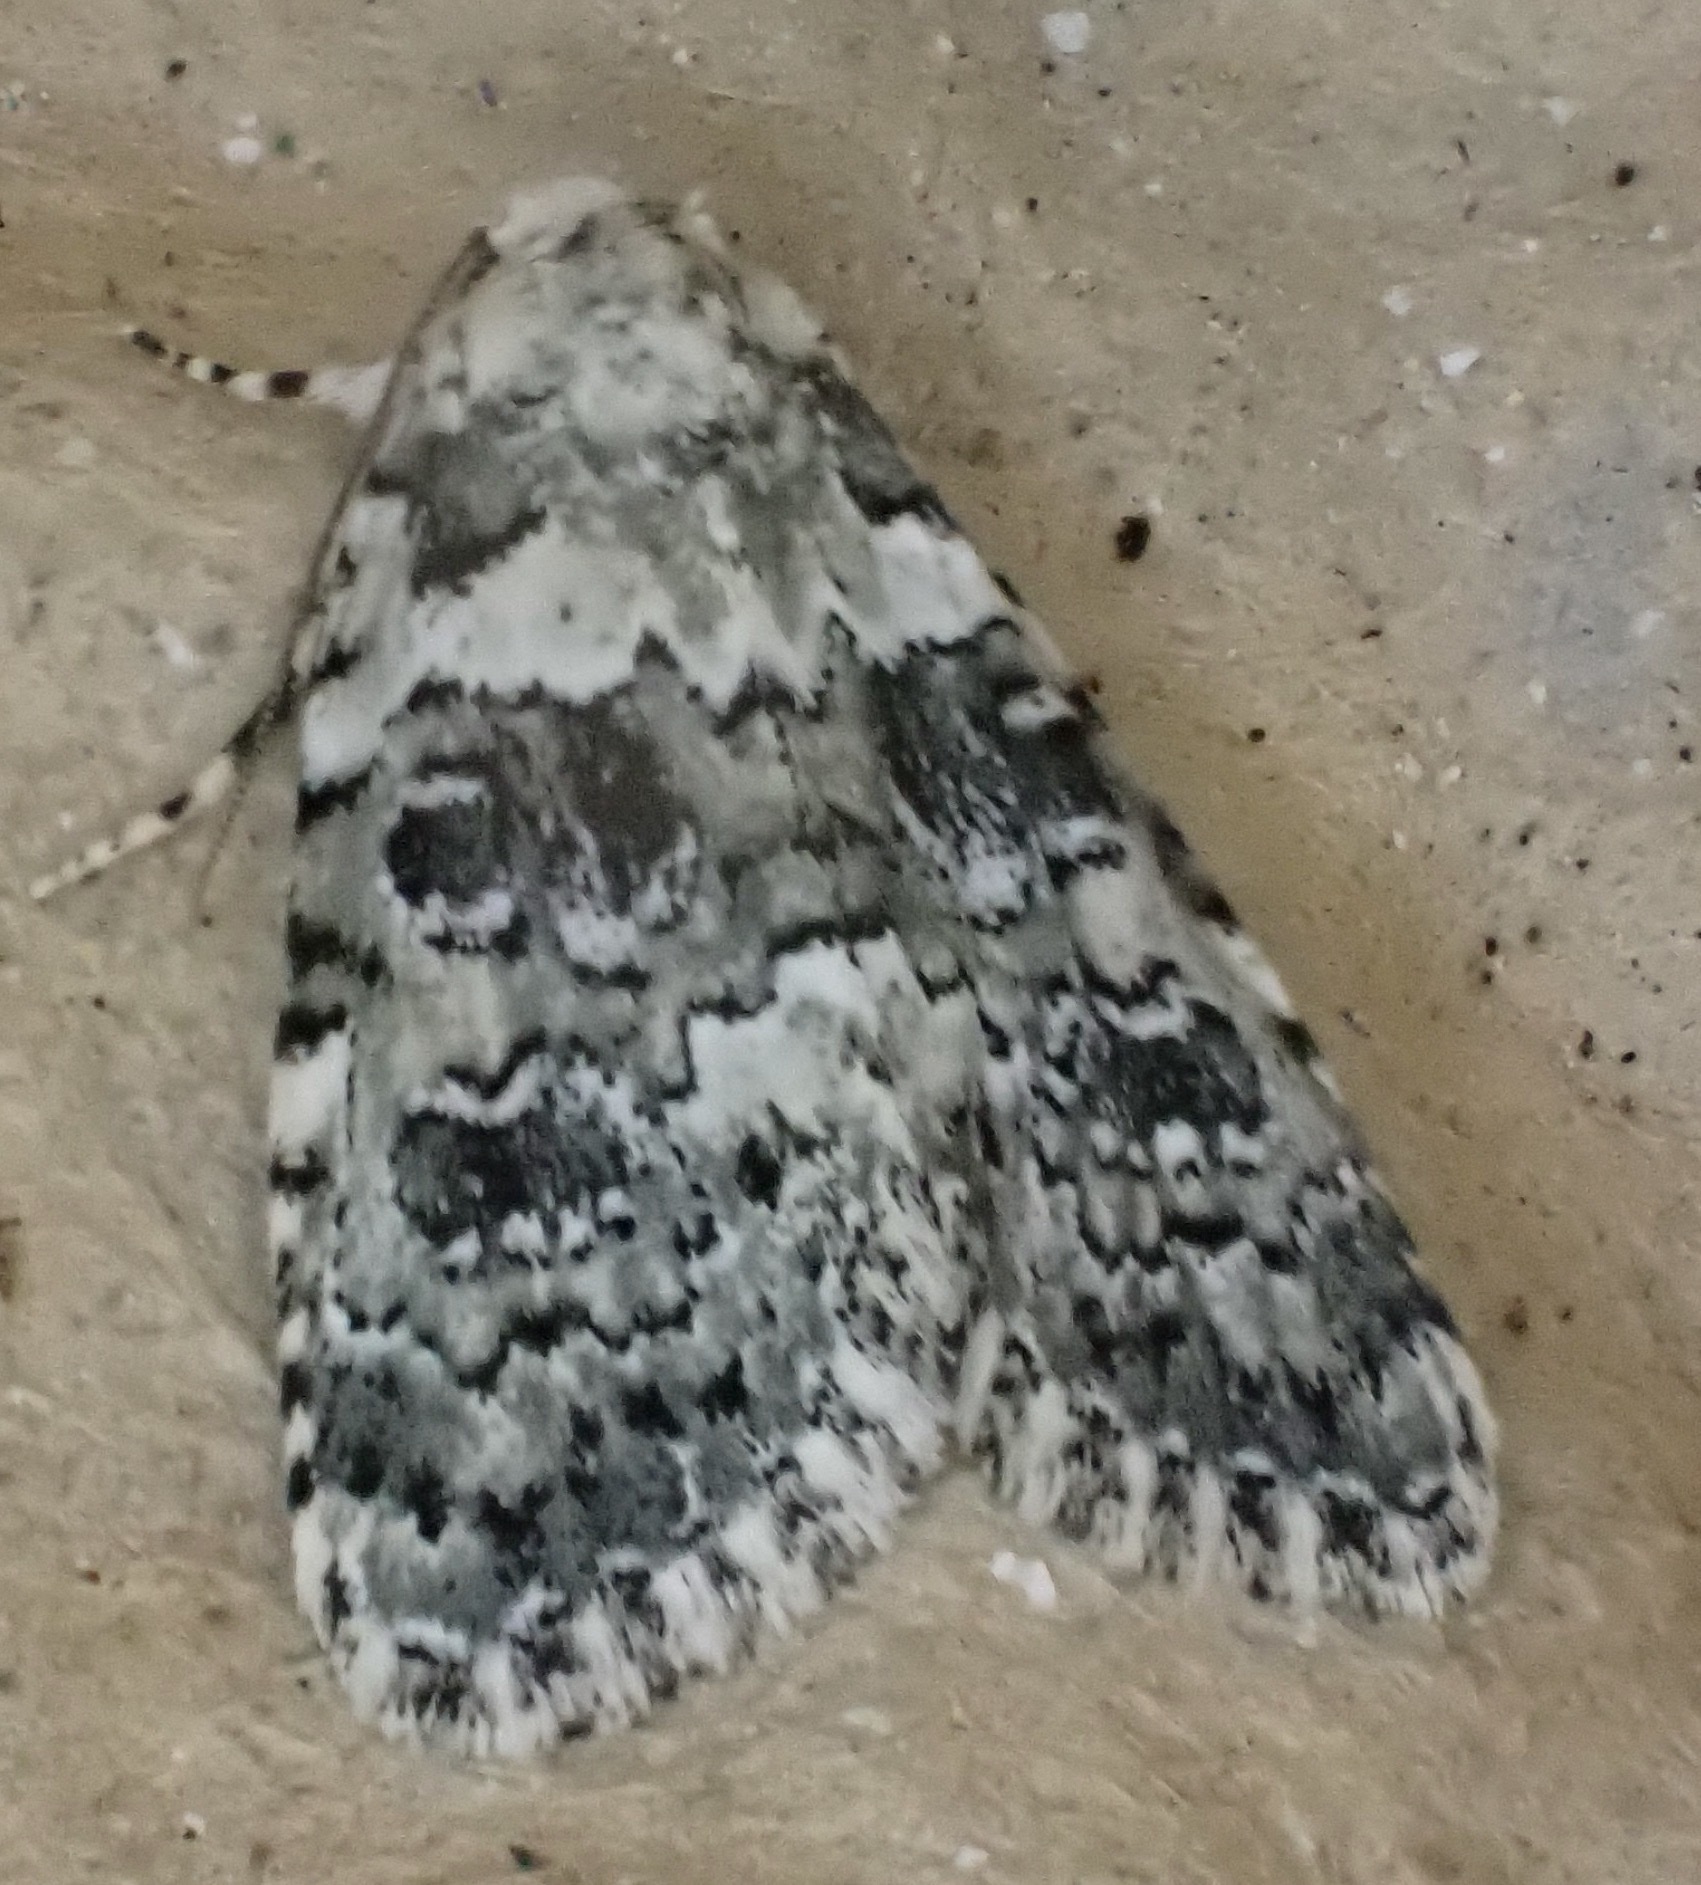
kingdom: Animalia
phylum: Arthropoda
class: Insecta
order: Lepidoptera
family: Noctuidae
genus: Bryophila
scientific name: Bryophila domestica
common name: Marbled beauty
